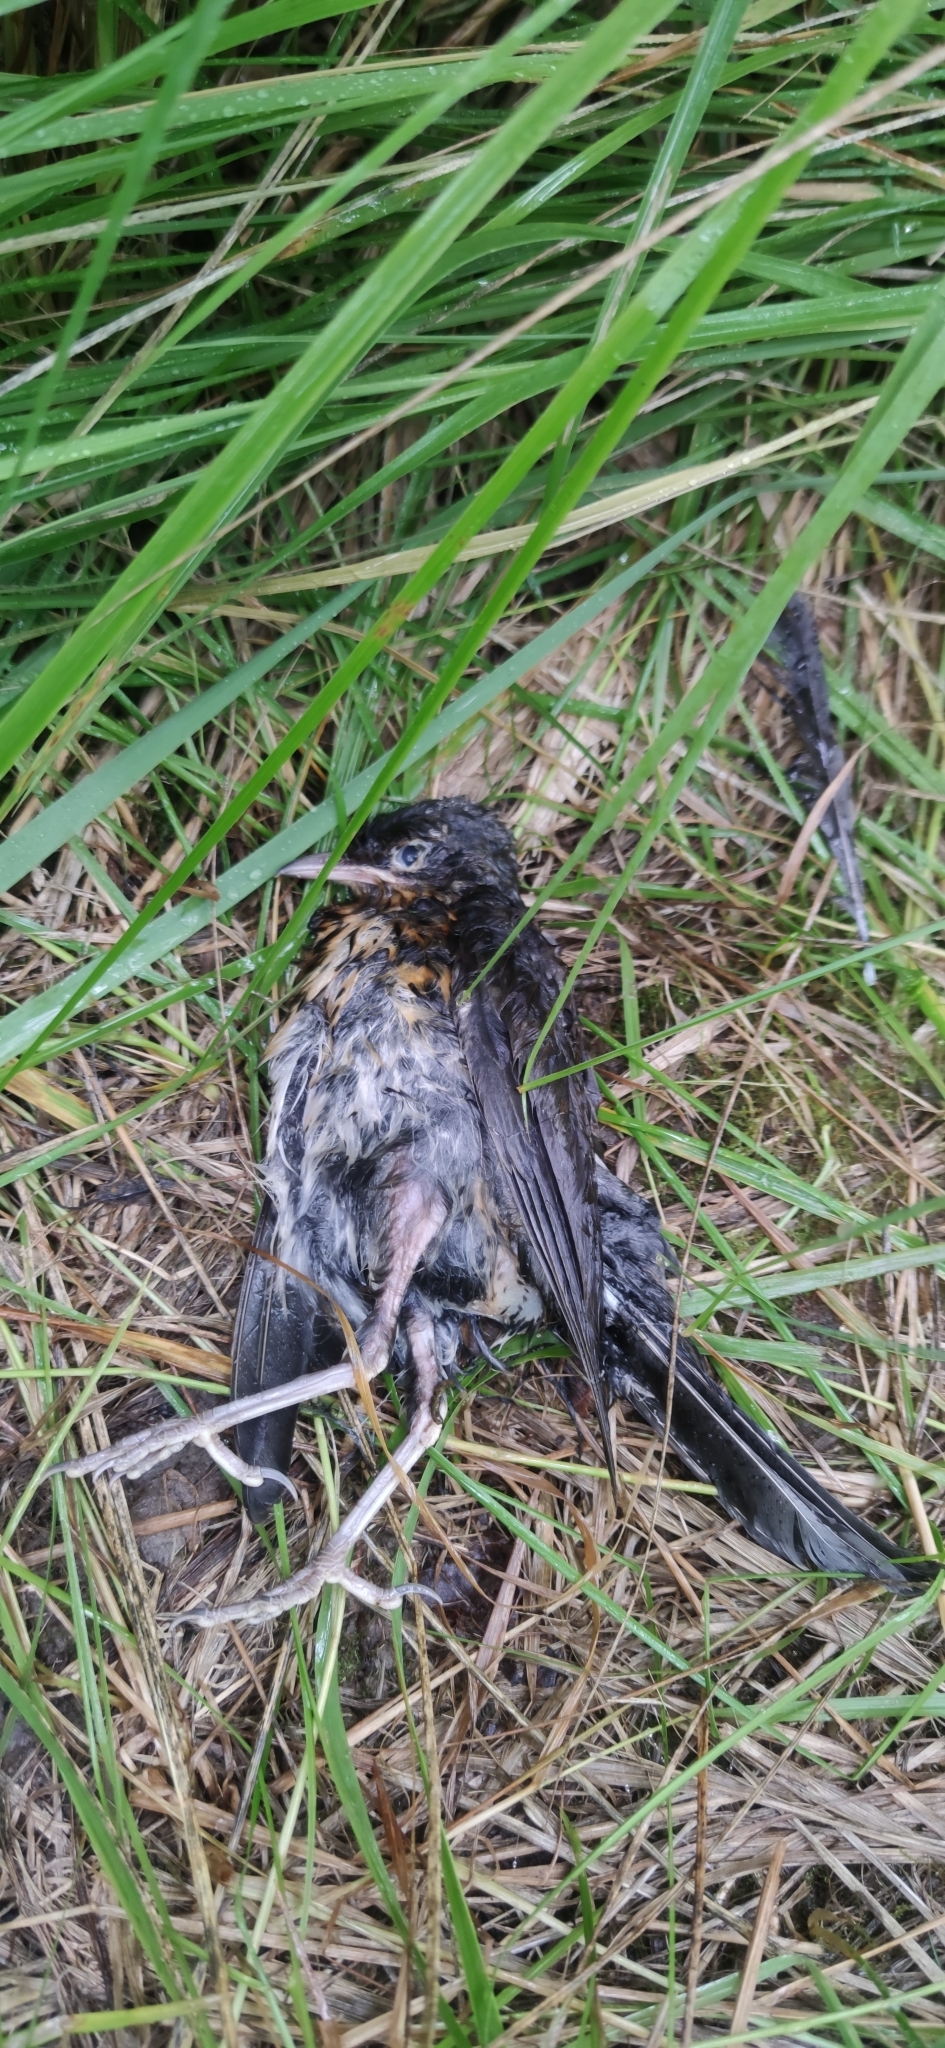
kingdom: Animalia
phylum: Chordata
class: Aves
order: Passeriformes
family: Turdidae
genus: Turdus
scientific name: Turdus pilaris
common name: Fieldfare
